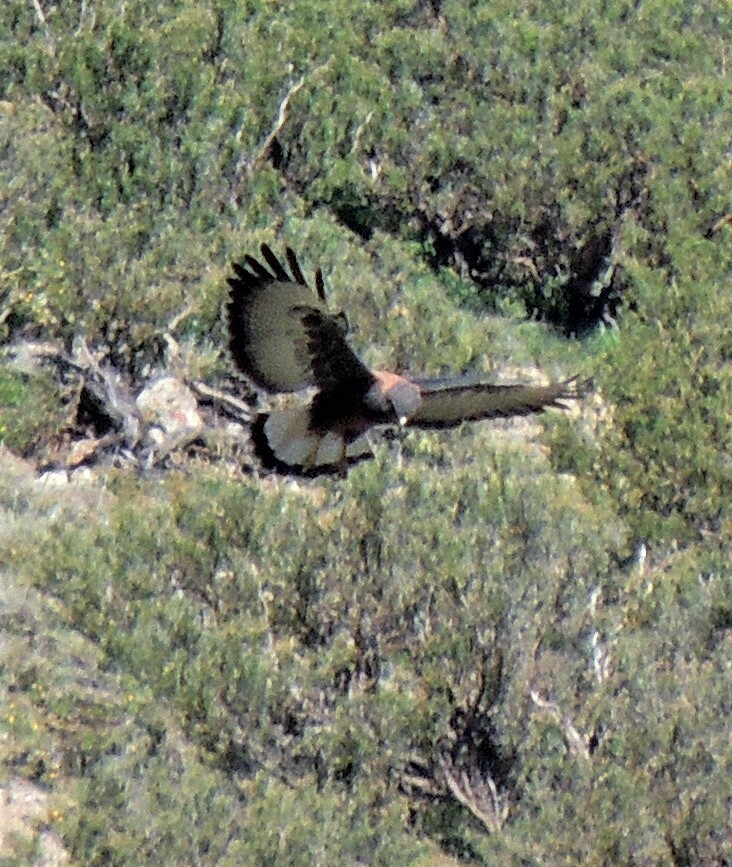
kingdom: Animalia
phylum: Chordata
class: Aves
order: Accipitriformes
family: Accipitridae
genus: Buteo
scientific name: Buteo polyosoma
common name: Variable hawk
